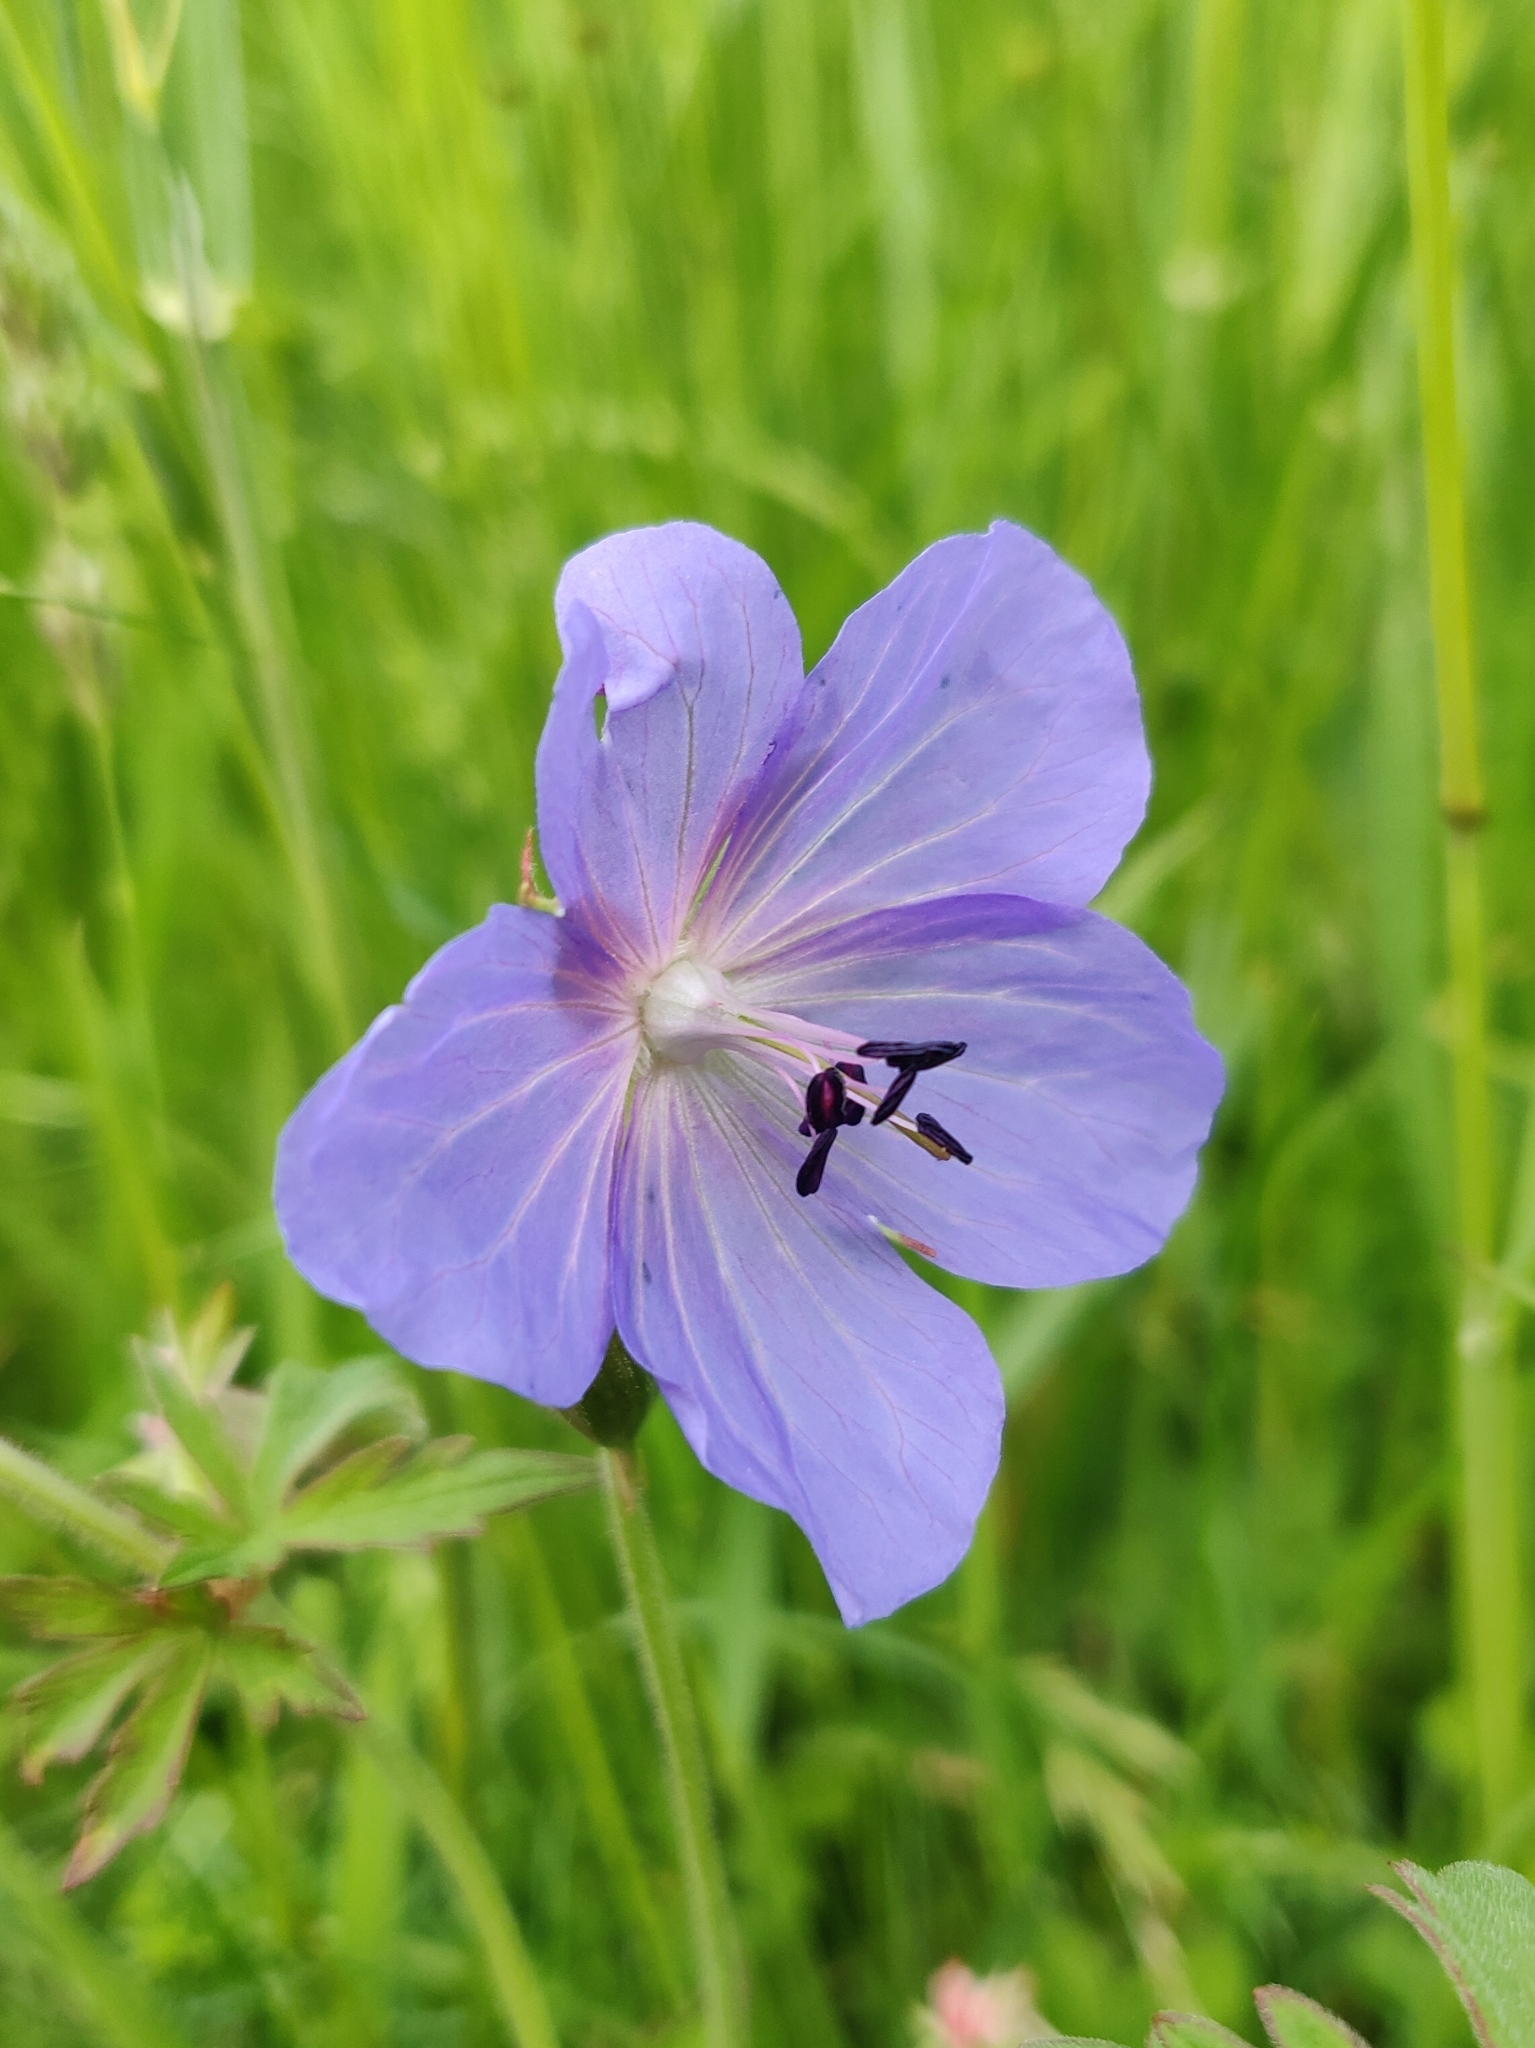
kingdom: Plantae
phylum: Tracheophyta
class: Magnoliopsida
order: Geraniales
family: Geraniaceae
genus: Geranium
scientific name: Geranium pratense
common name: Meadow crane's-bill
